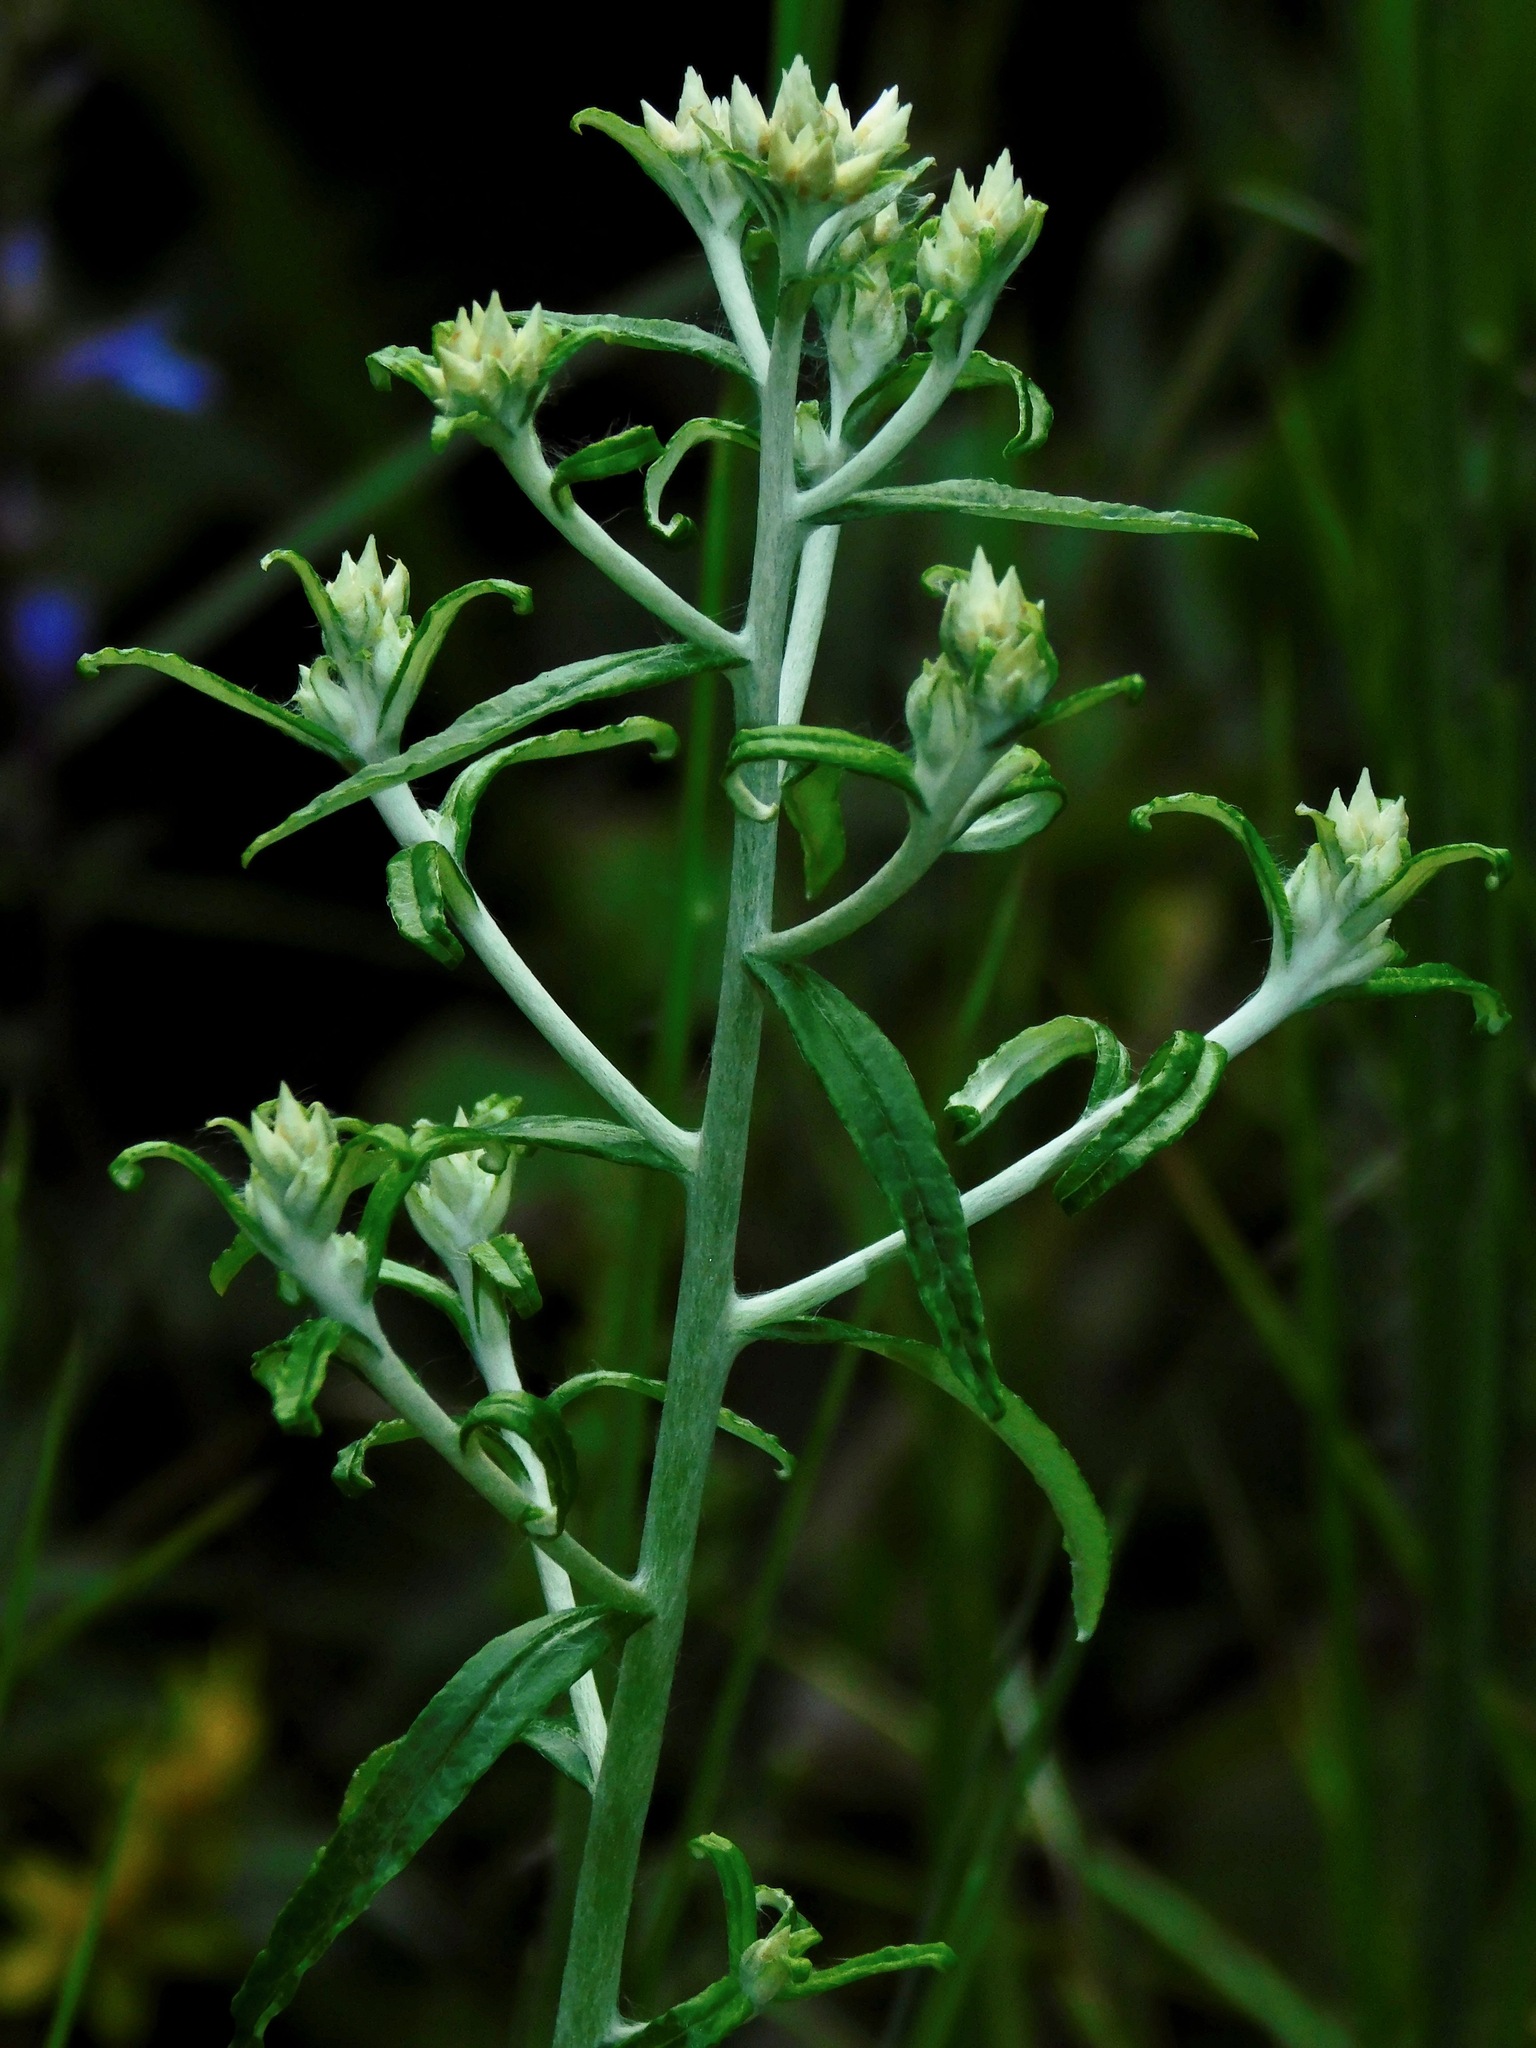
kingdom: Plantae
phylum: Tracheophyta
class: Magnoliopsida
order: Asterales
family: Asteraceae
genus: Pseudognaphalium
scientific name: Pseudognaphalium obtusifolium
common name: Eastern rabbit-tobacco
